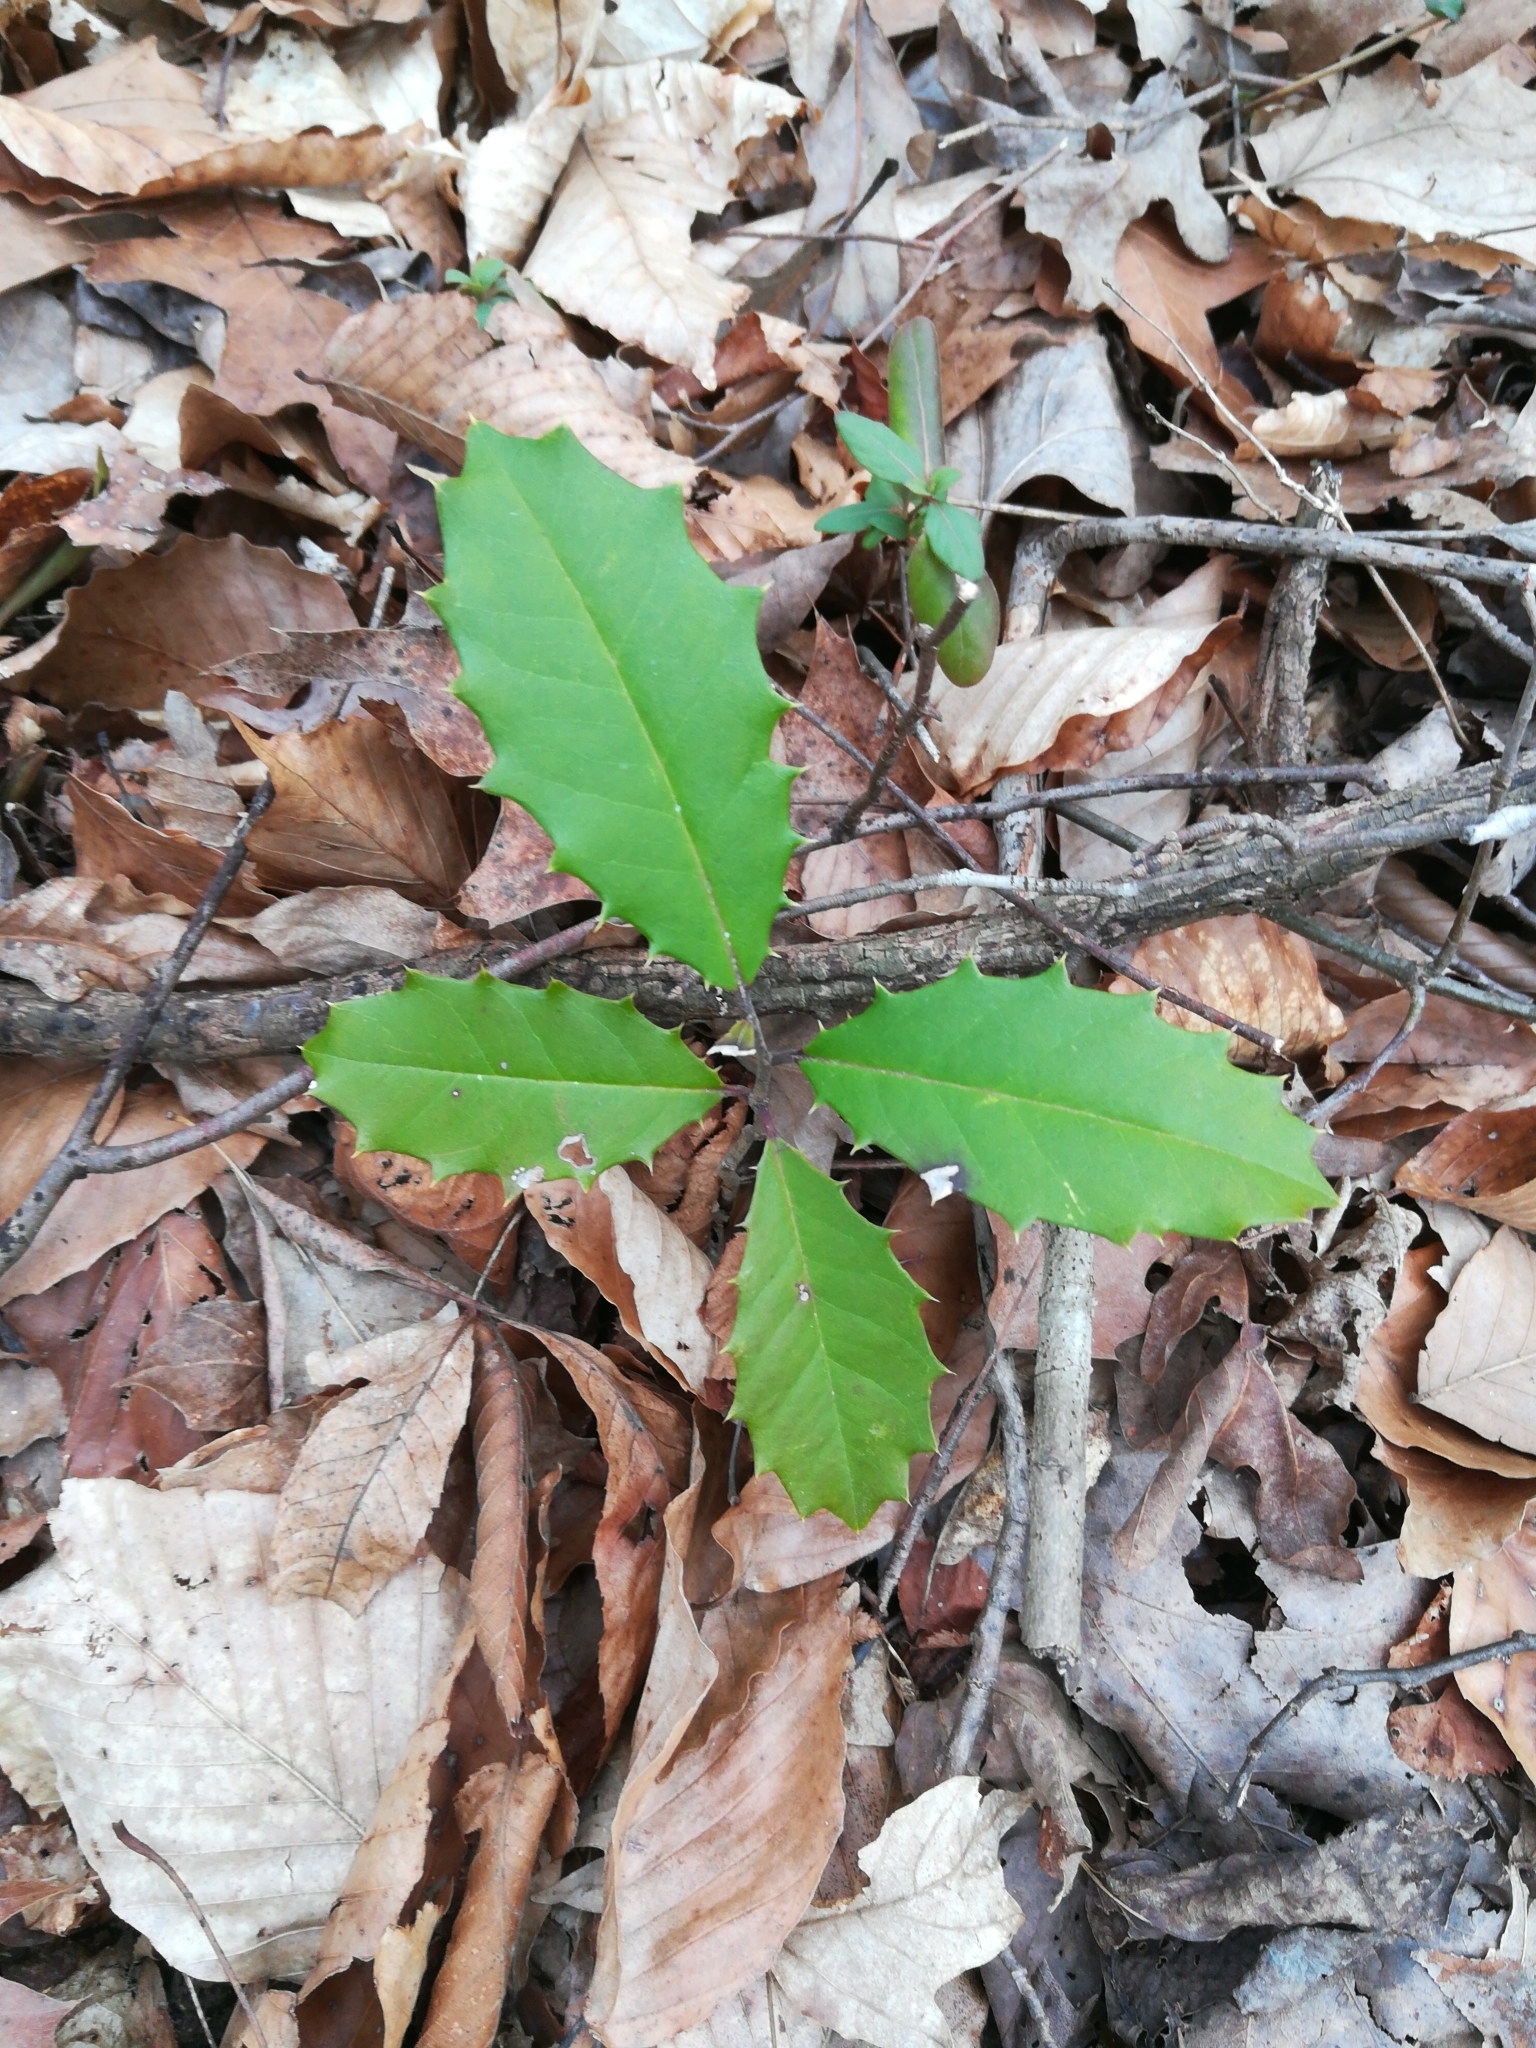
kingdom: Plantae
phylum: Tracheophyta
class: Magnoliopsida
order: Aquifoliales
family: Aquifoliaceae
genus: Ilex
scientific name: Ilex opaca
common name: American holly
